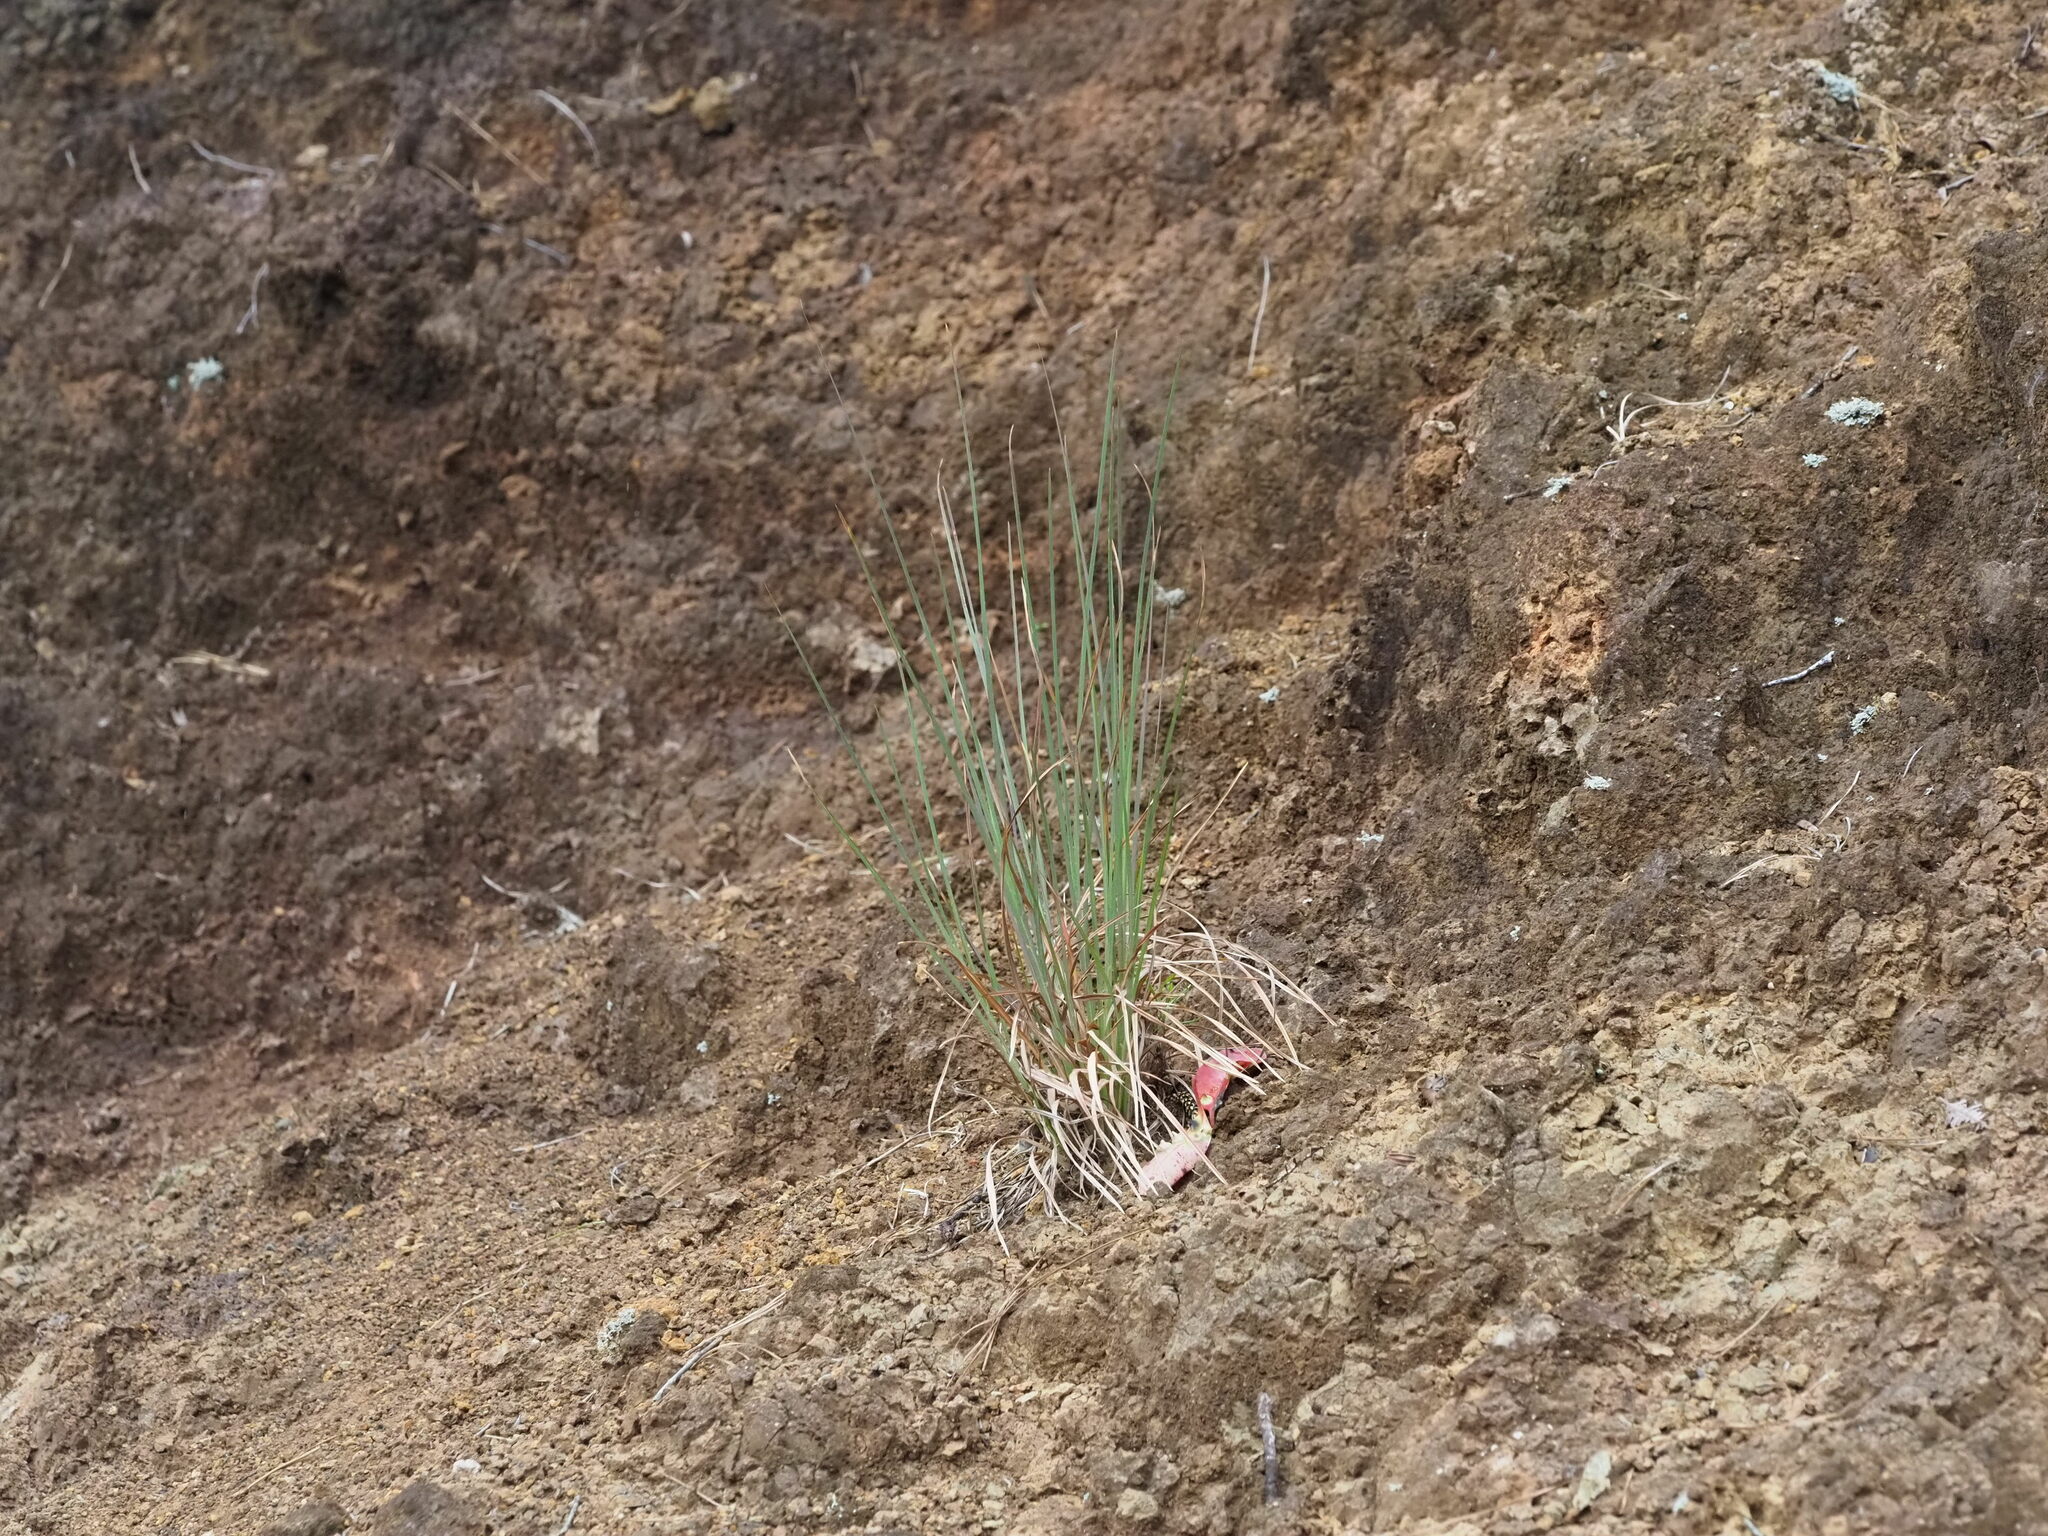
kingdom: Plantae
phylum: Tracheophyta
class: Liliopsida
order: Poales
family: Poaceae
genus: Andropogon
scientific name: Andropogon virginicus
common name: Broomsedge bluestem
